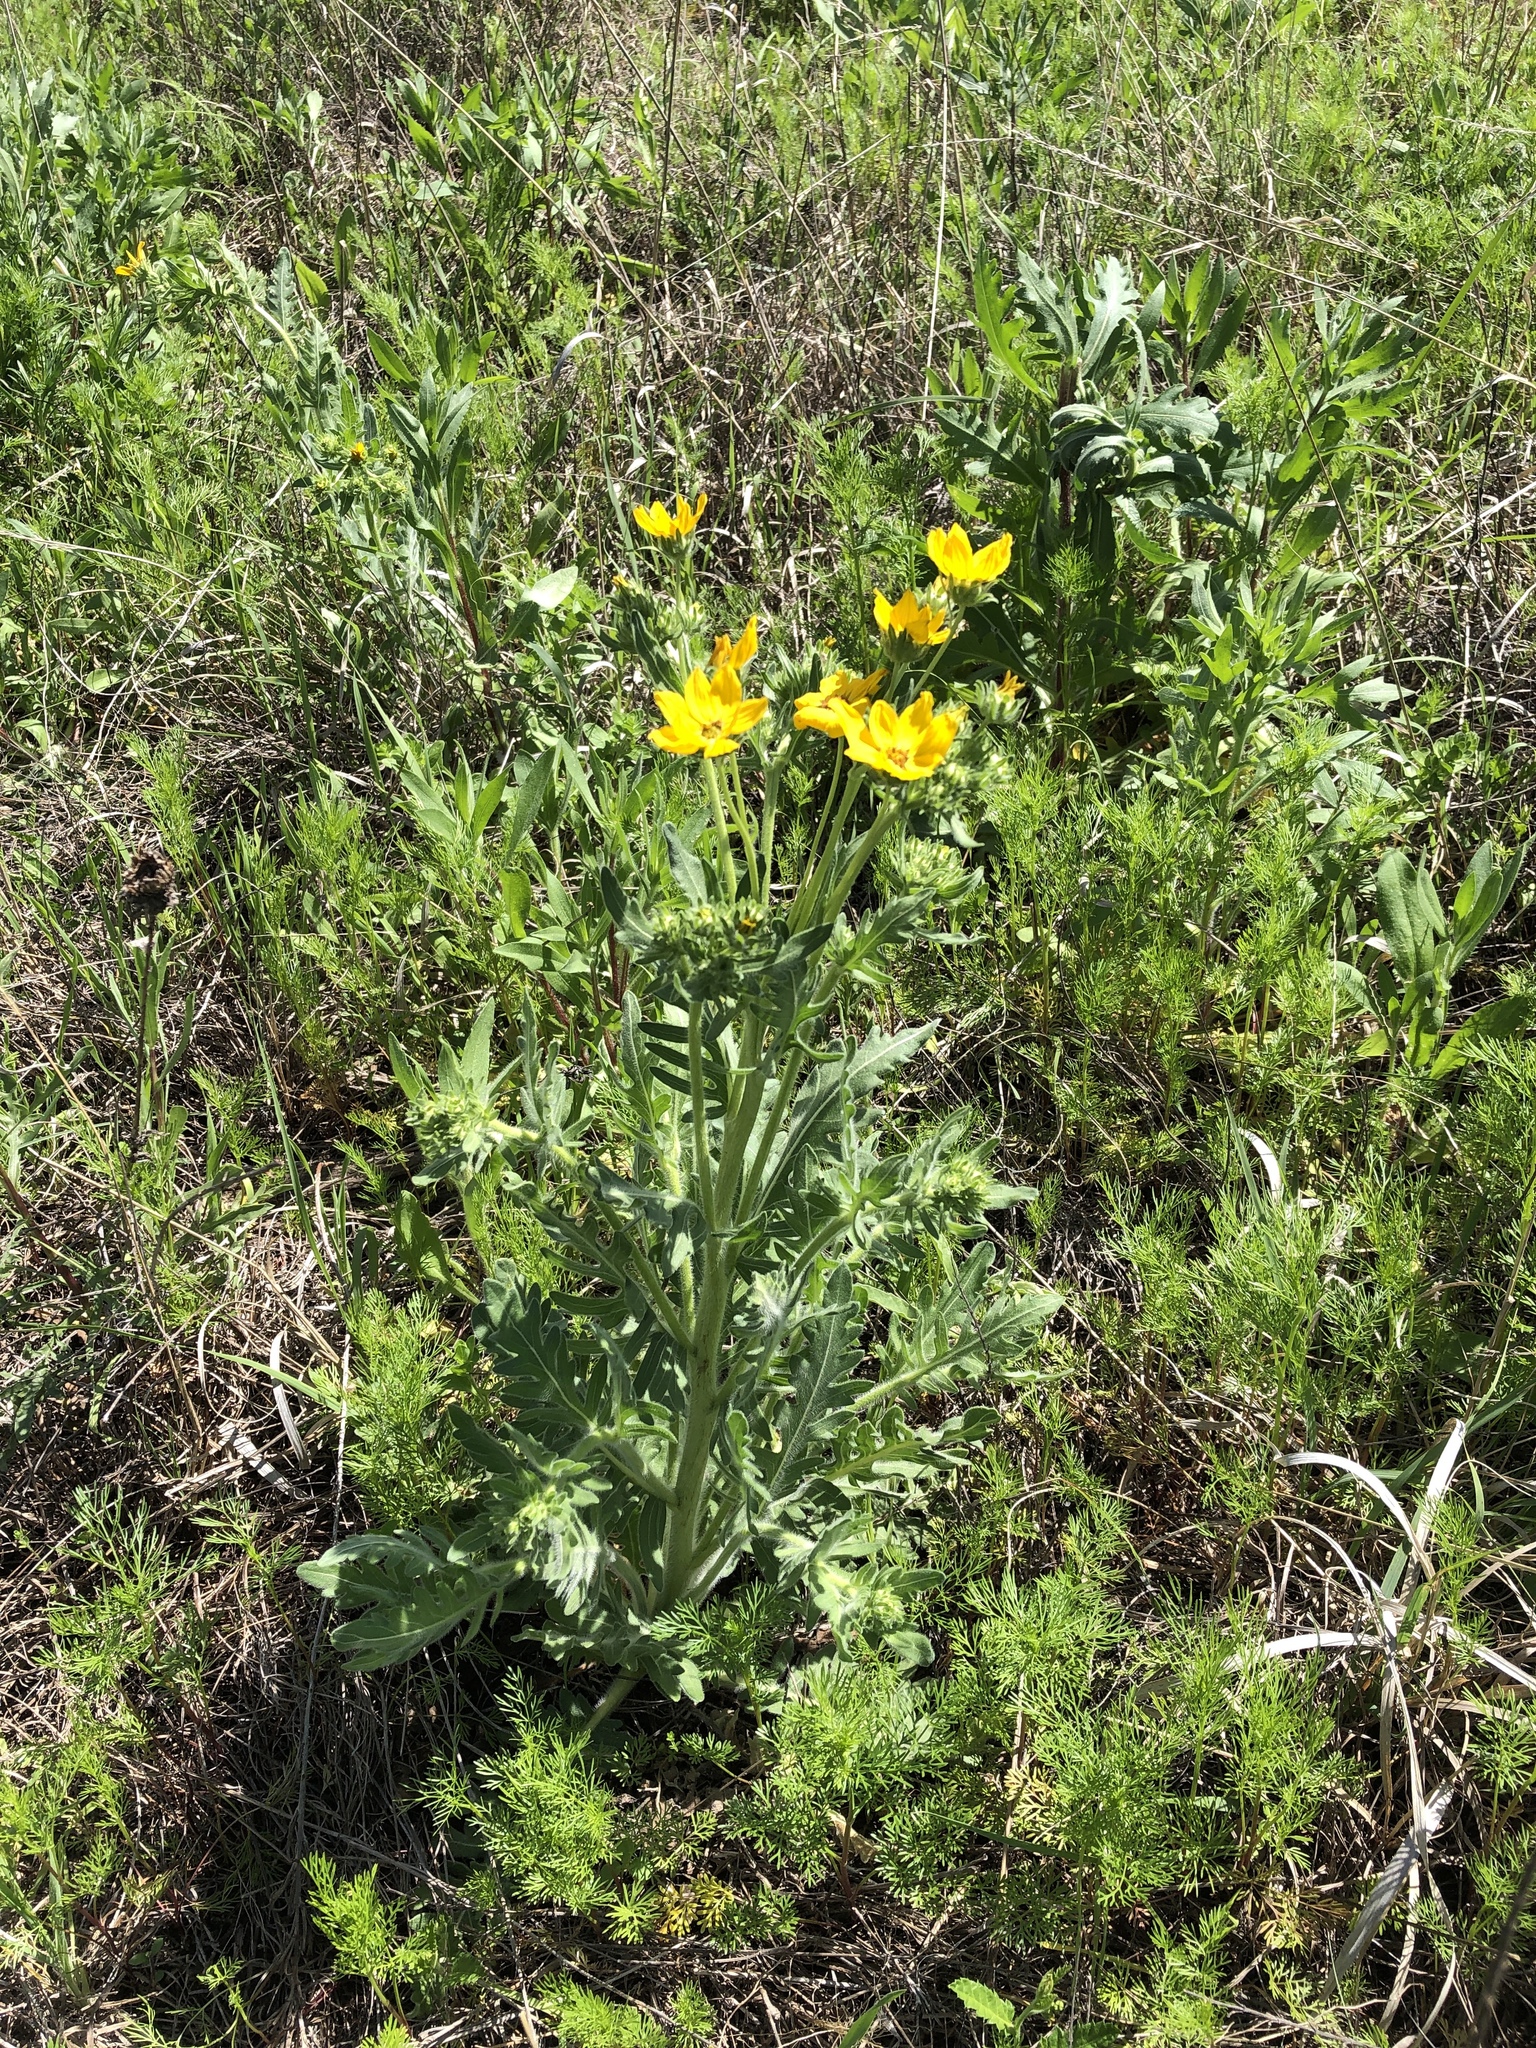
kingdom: Plantae
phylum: Tracheophyta
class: Magnoliopsida
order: Asterales
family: Asteraceae
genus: Engelmannia
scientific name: Engelmannia peristenia
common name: Engelmann's daisy
